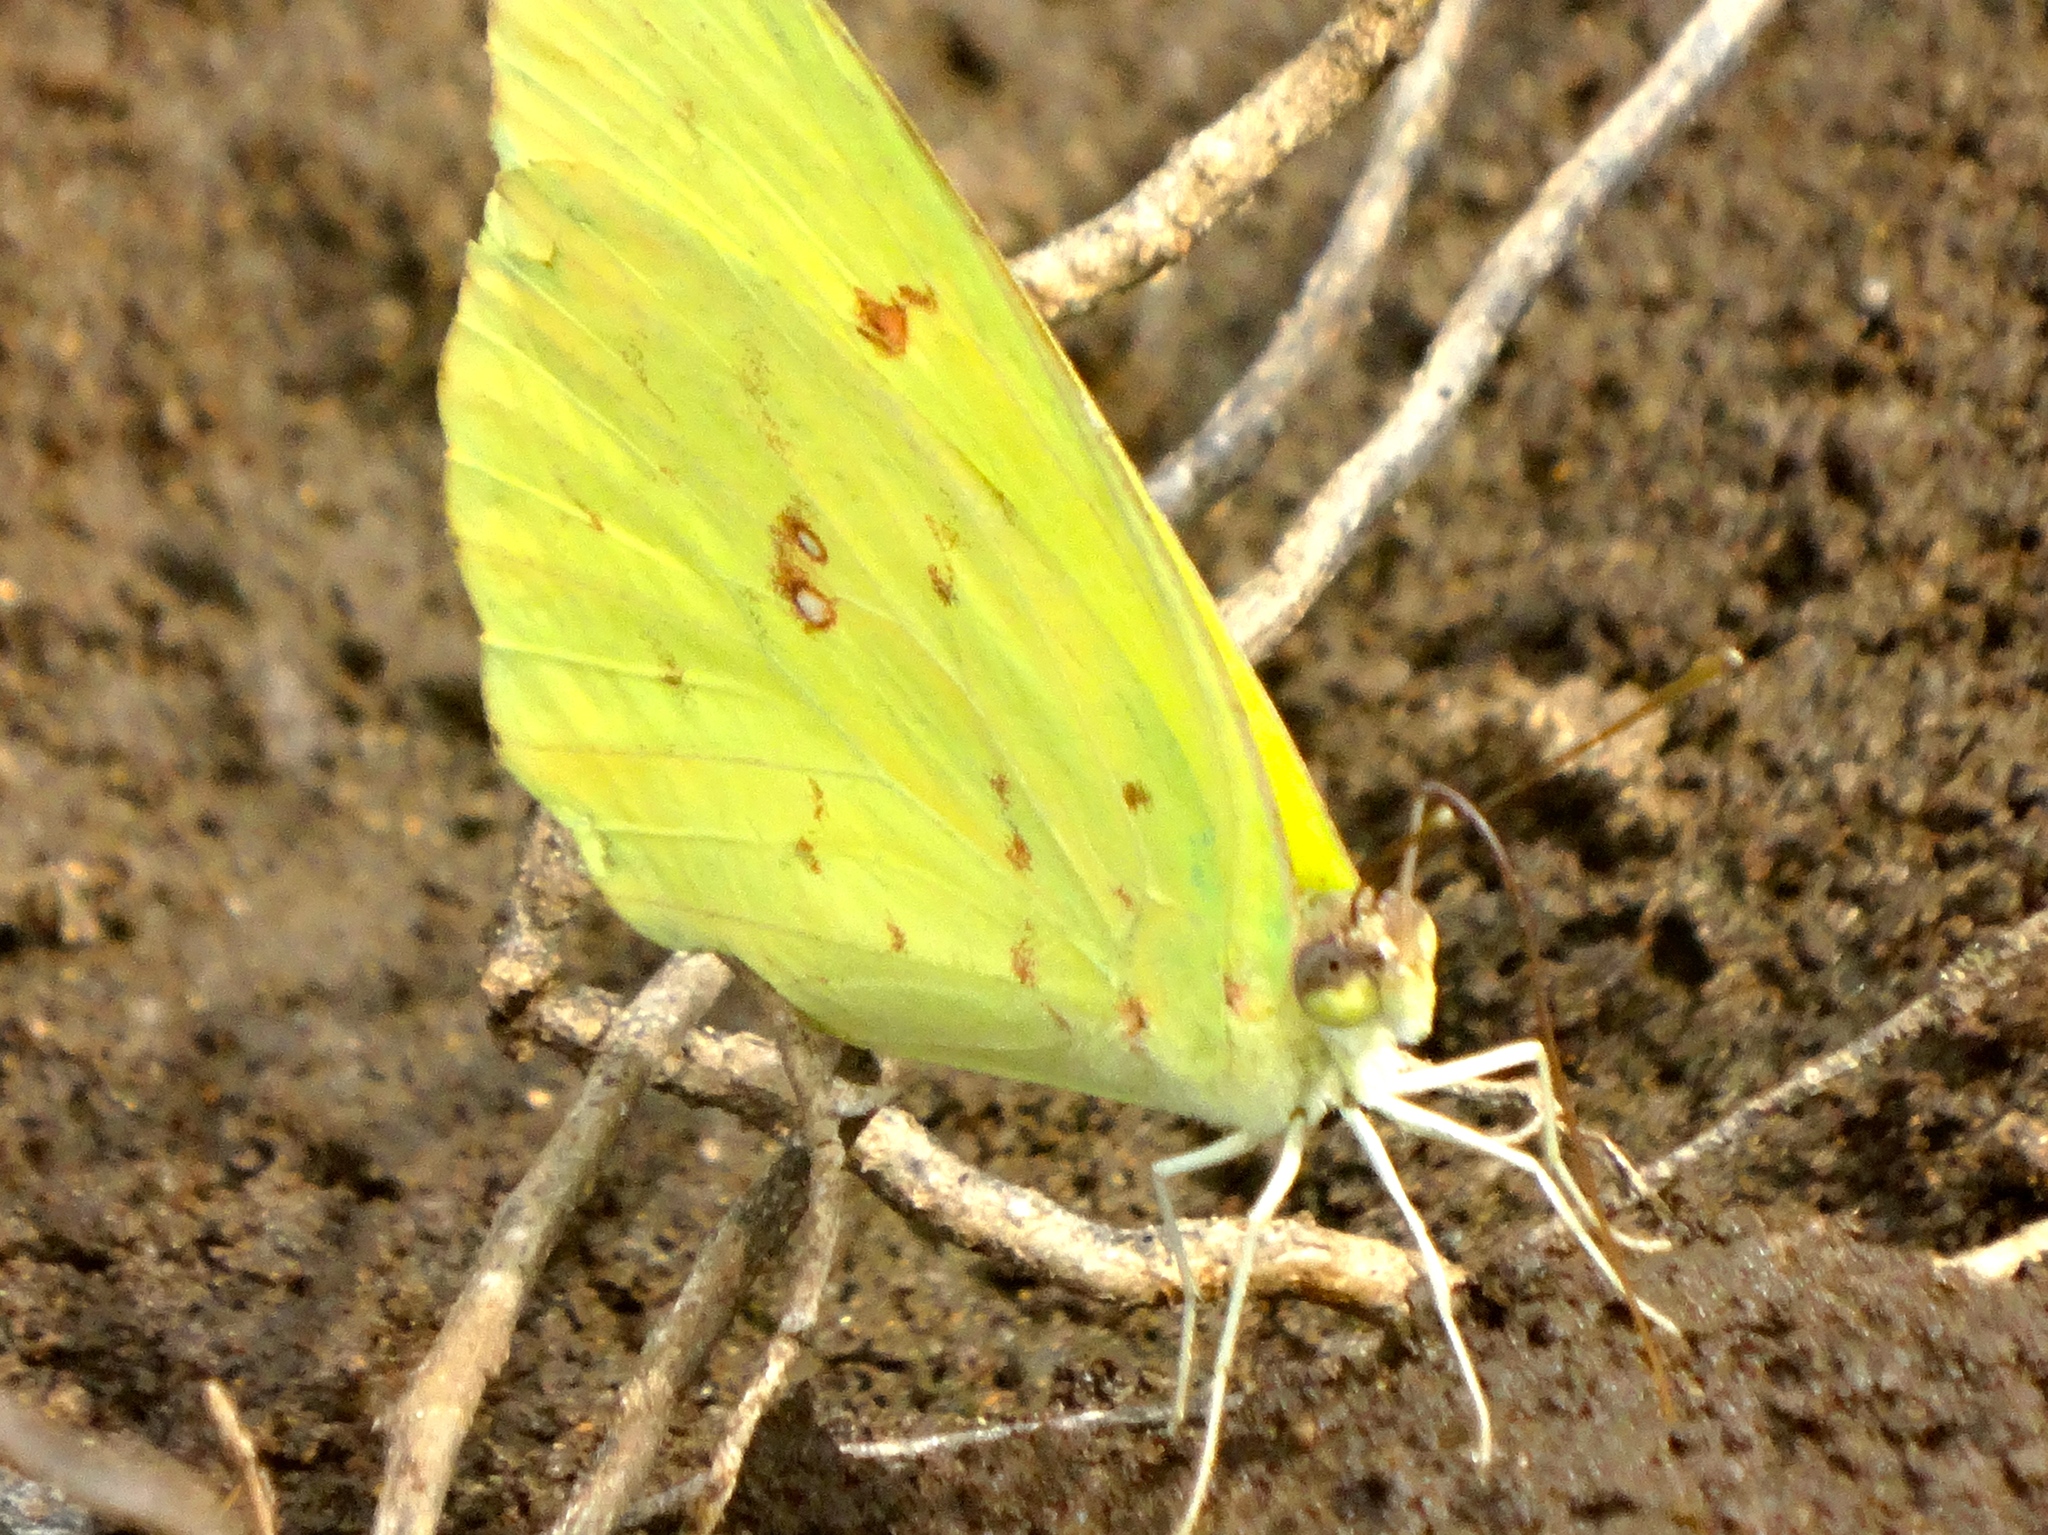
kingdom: Animalia
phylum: Arthropoda
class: Insecta
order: Lepidoptera
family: Pieridae
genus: Phoebis
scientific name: Phoebis sennae
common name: Cloudless sulphur
